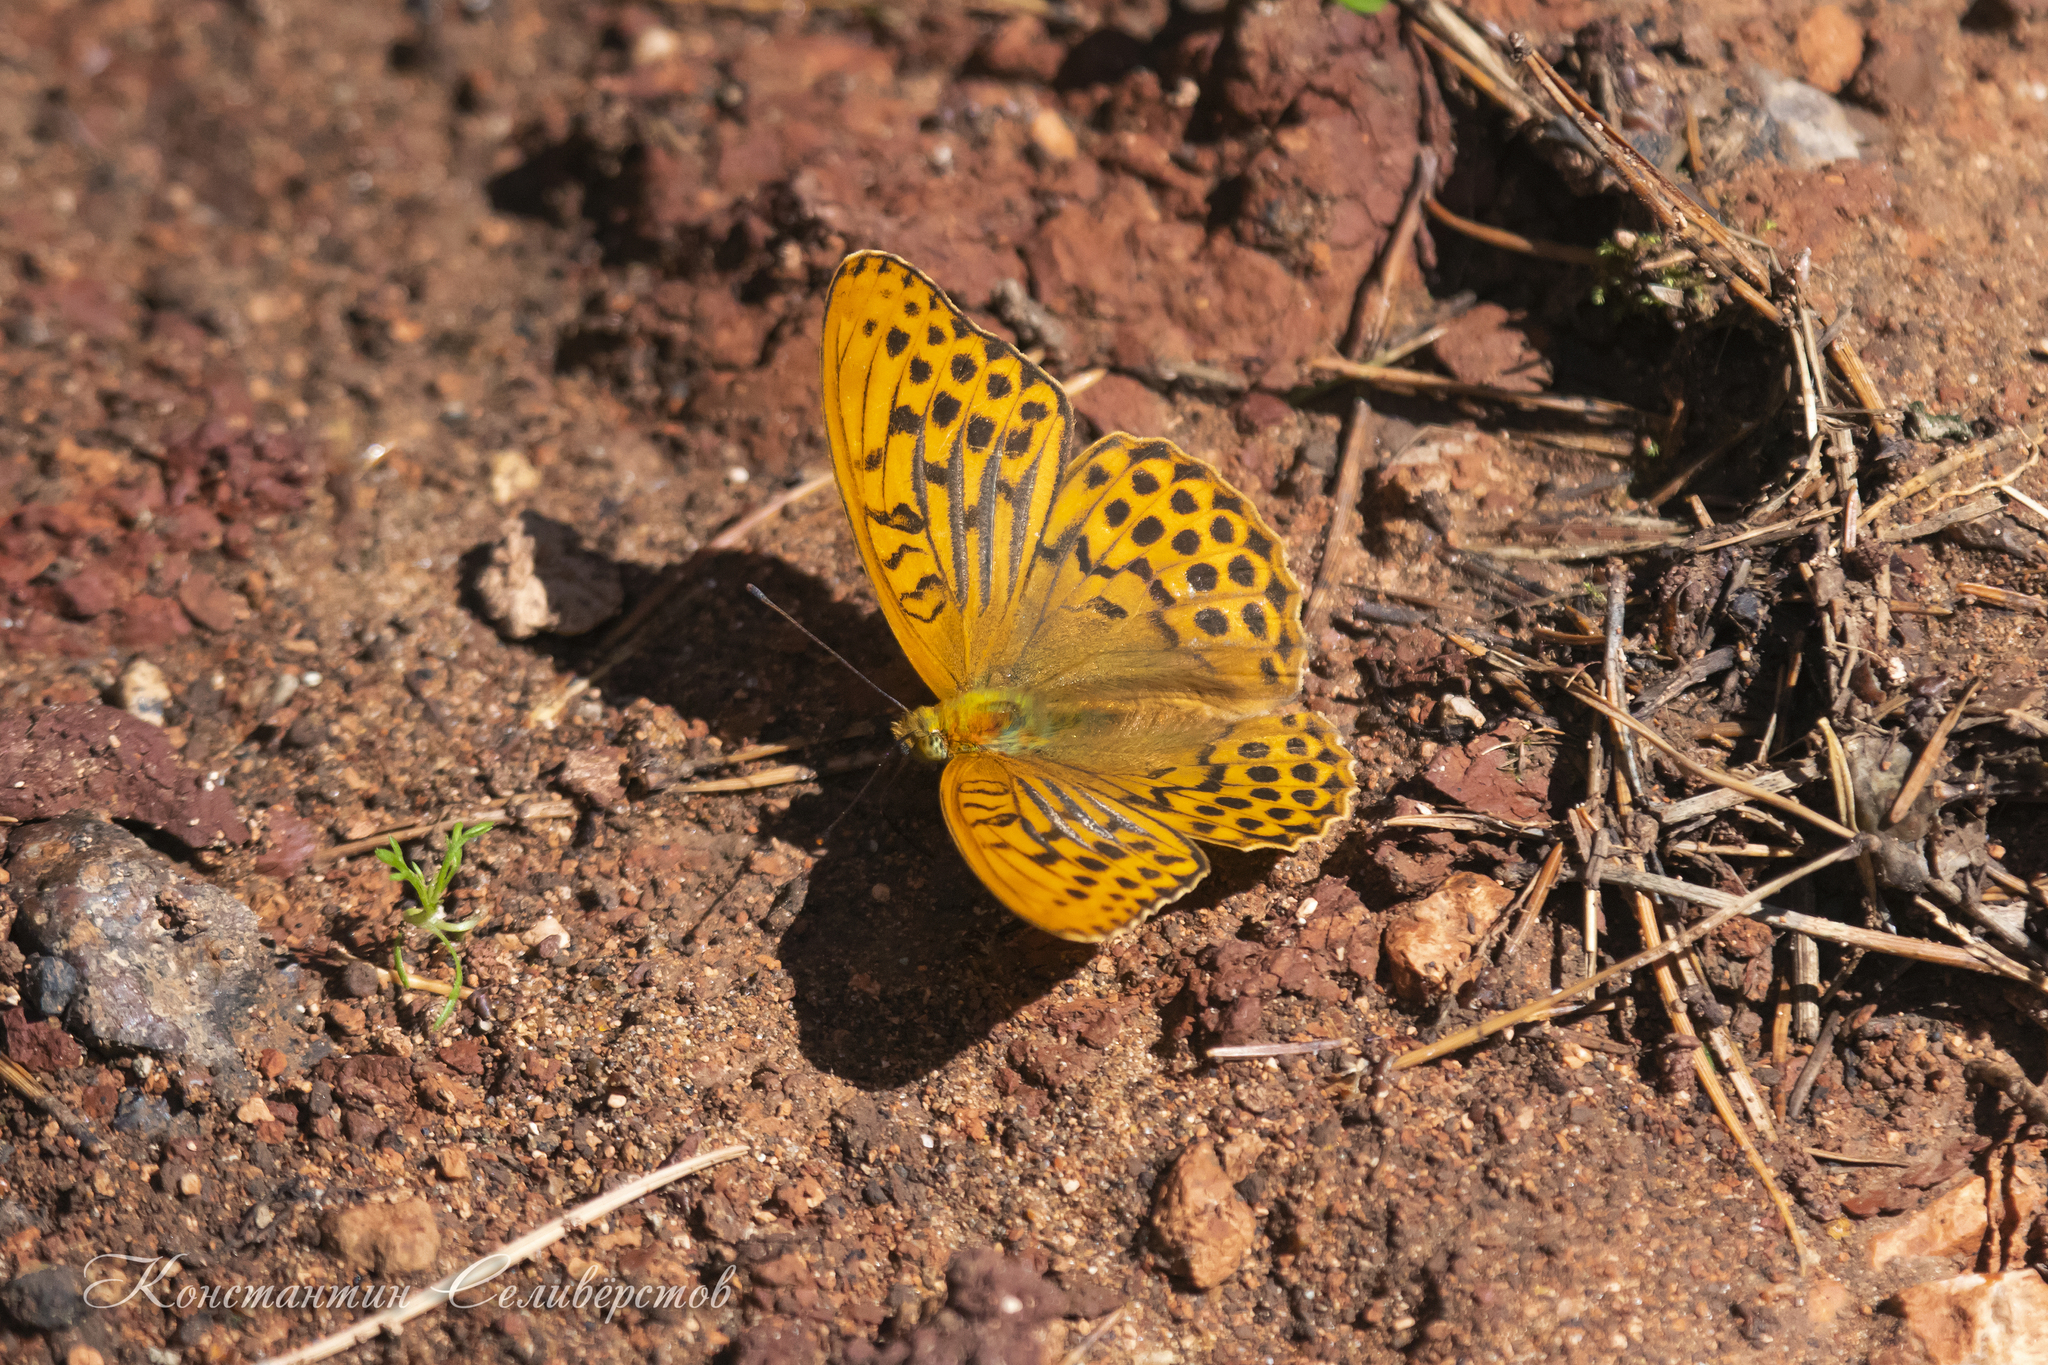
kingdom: Animalia
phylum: Arthropoda
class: Insecta
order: Lepidoptera
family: Nymphalidae
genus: Argynnis
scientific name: Argynnis paphia
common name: Silver-washed fritillary
